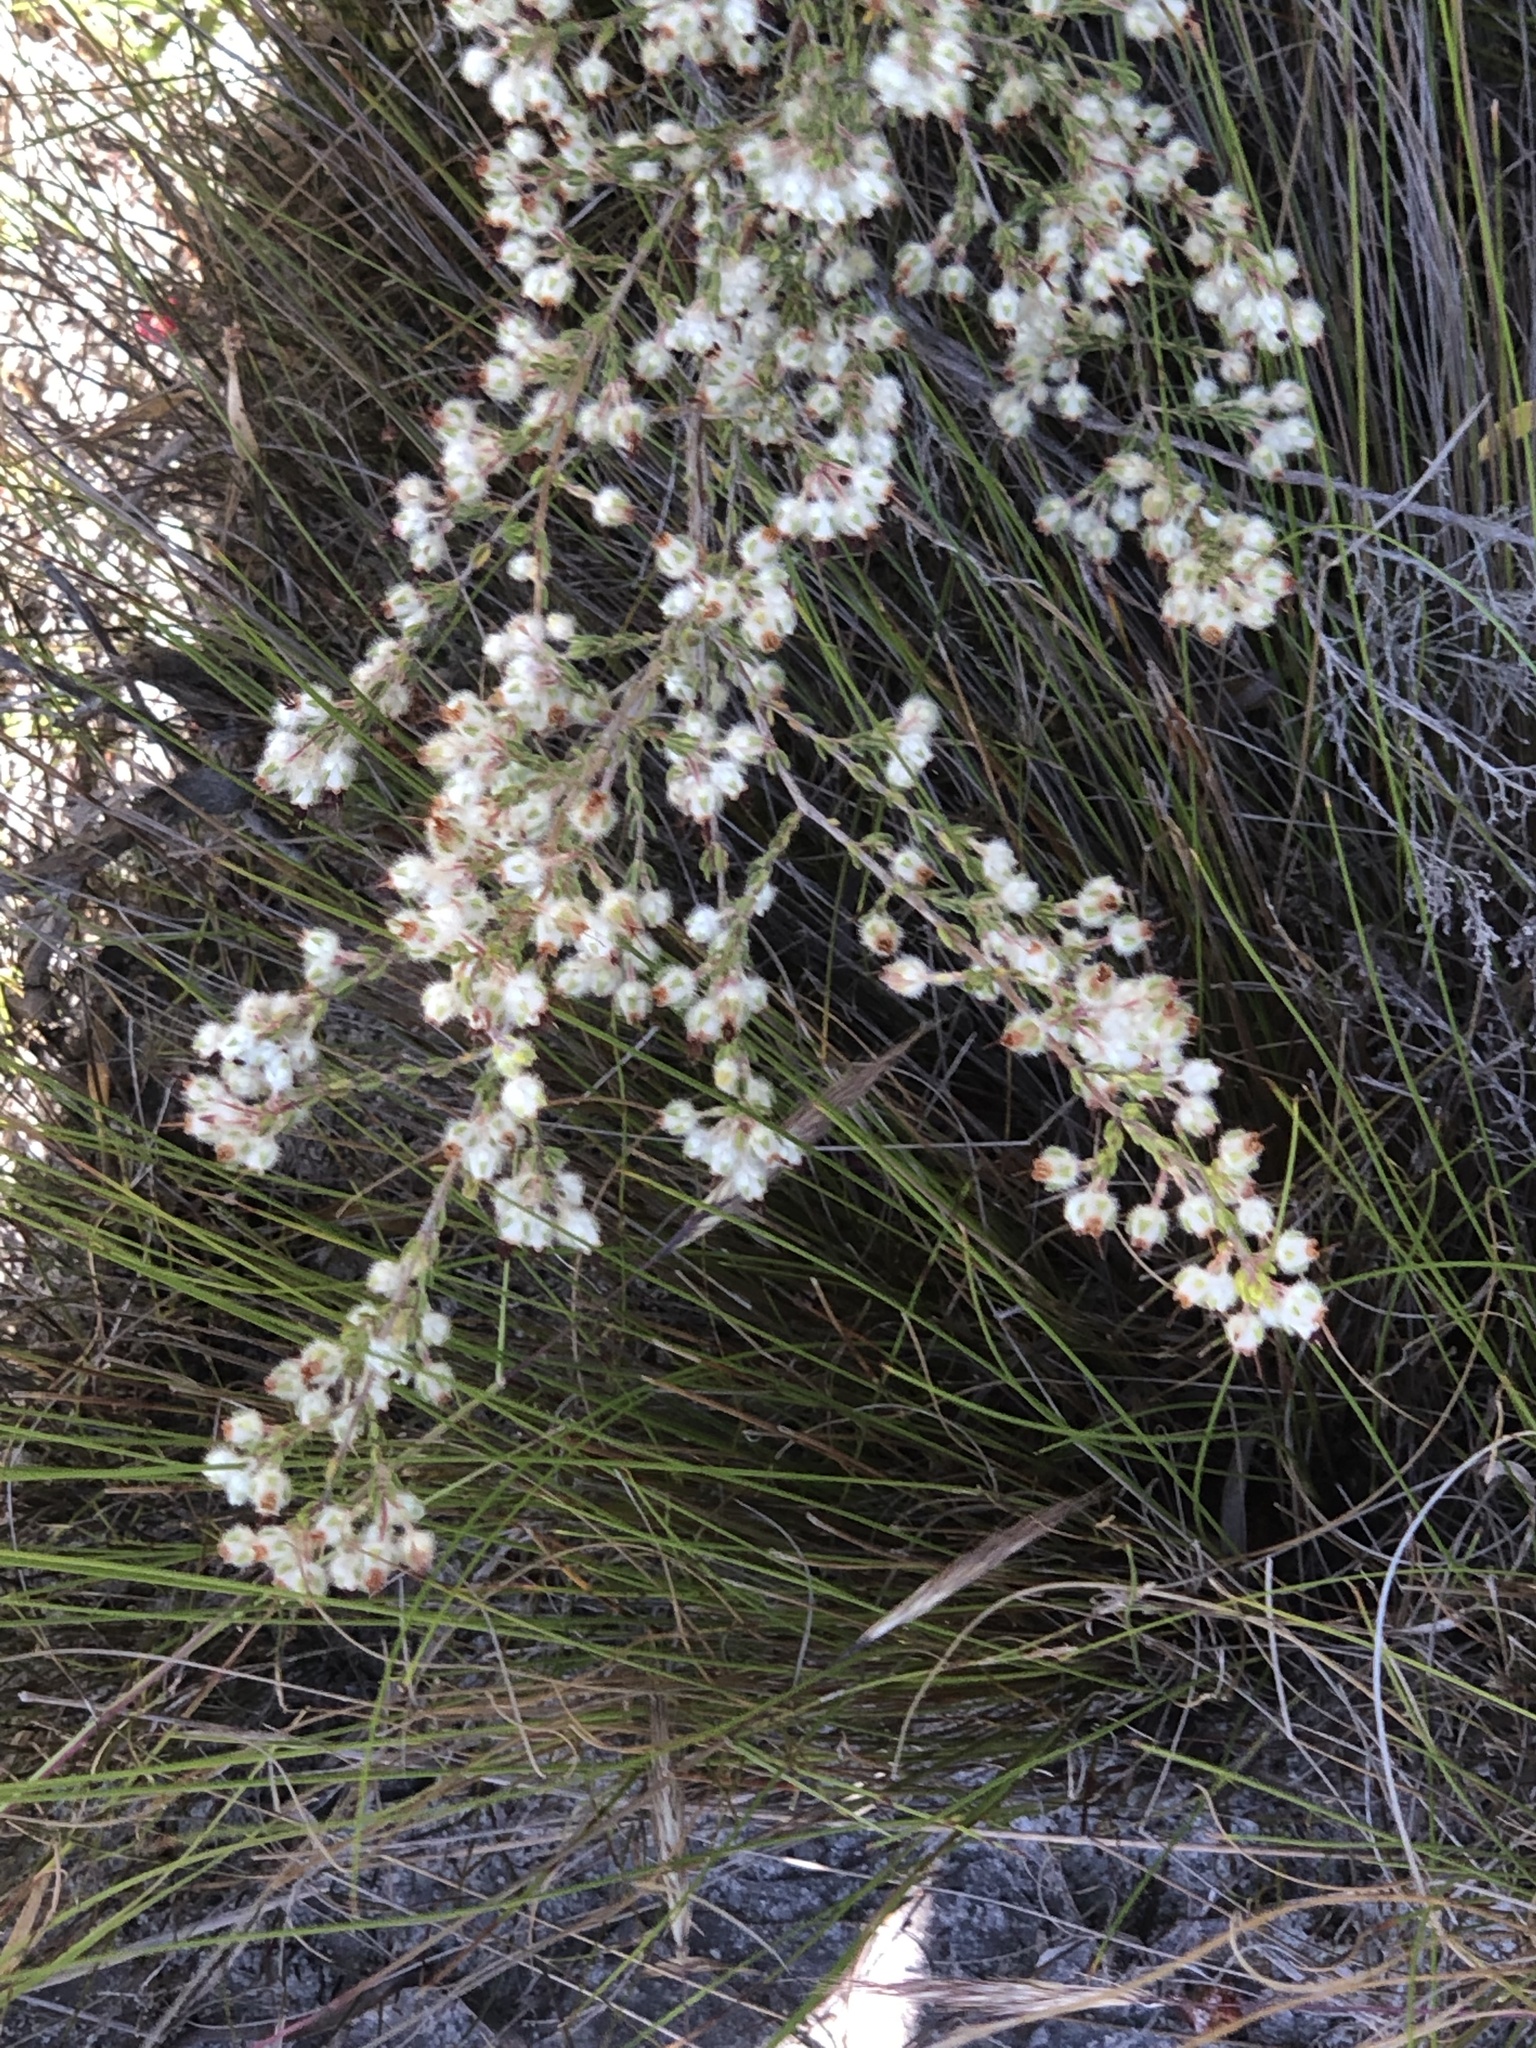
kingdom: Plantae
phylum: Tracheophyta
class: Magnoliopsida
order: Ericales
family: Ericaceae
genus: Erica
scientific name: Erica villosa
